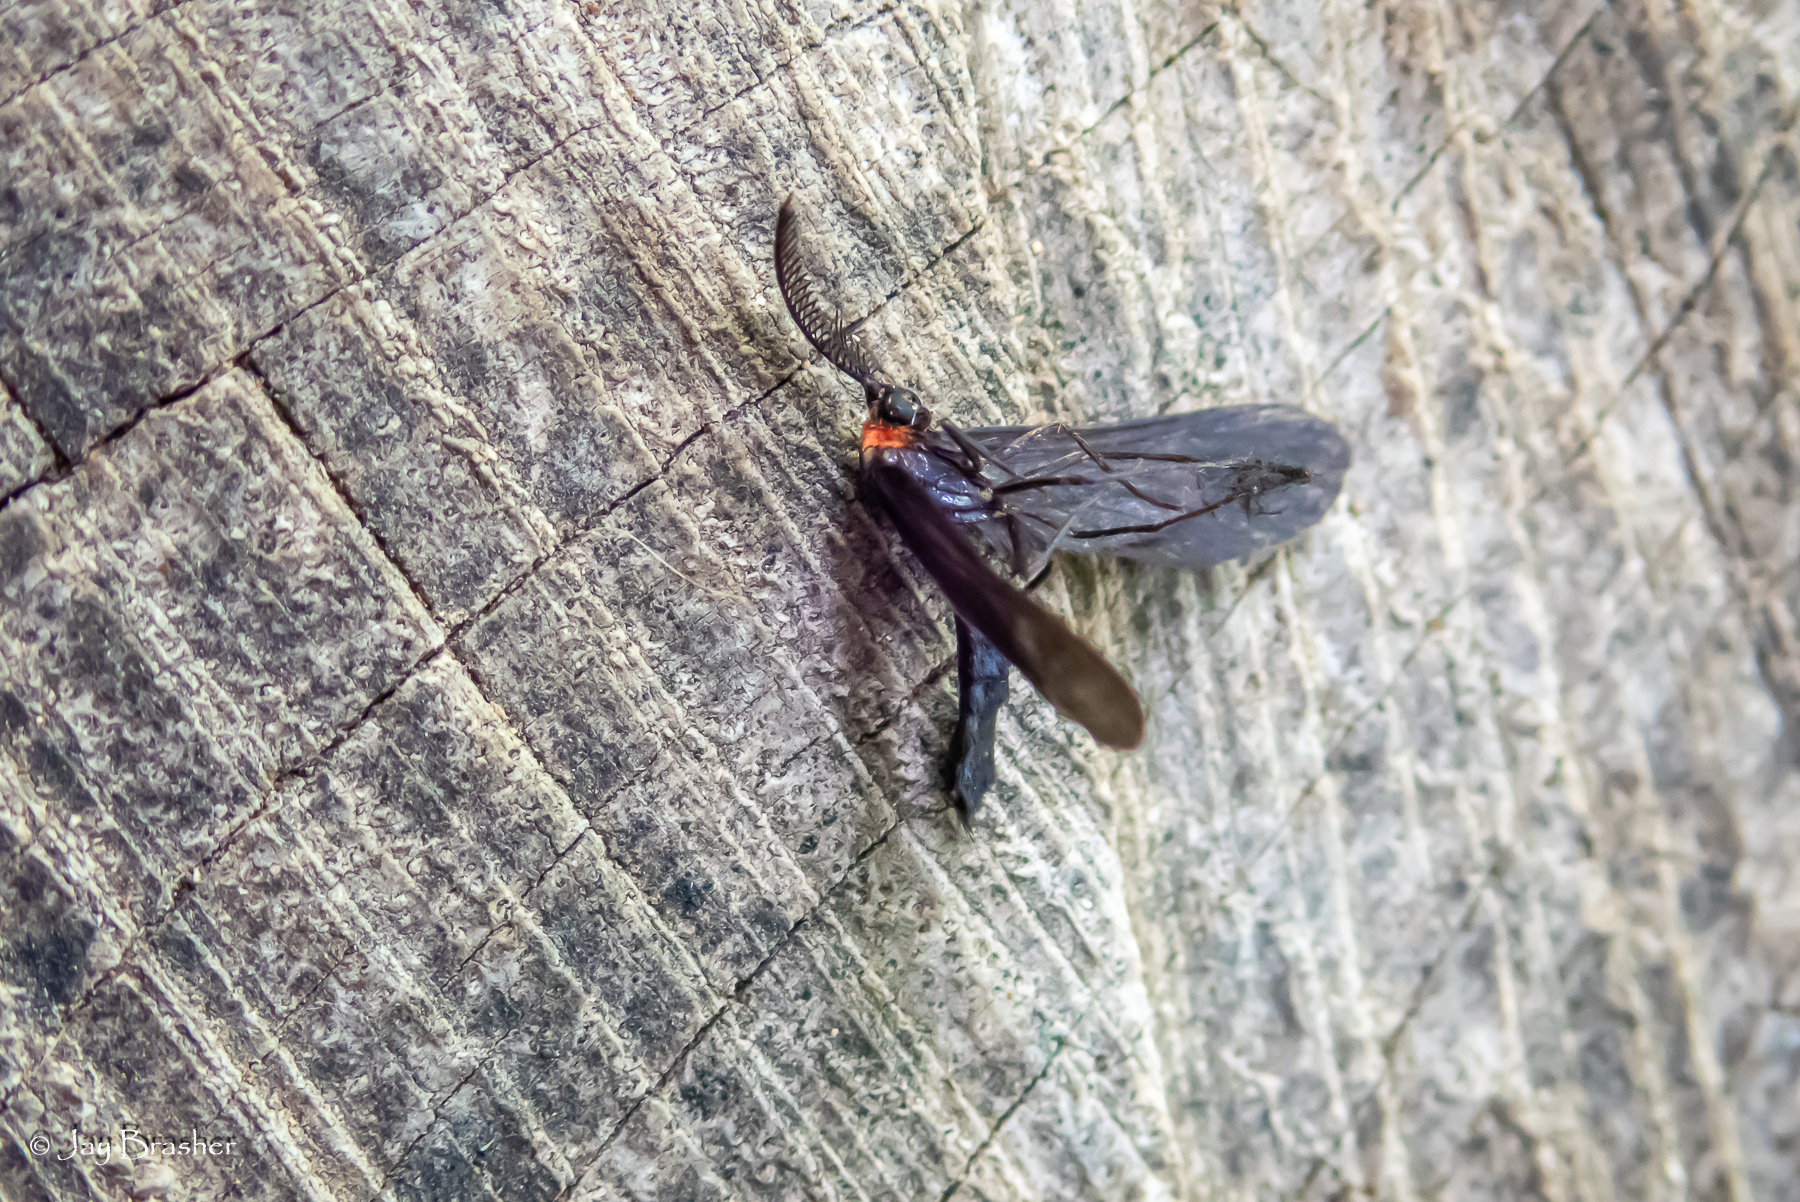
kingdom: Animalia
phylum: Arthropoda
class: Insecta
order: Lepidoptera
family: Zygaenidae
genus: Harrisina
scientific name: Harrisina americana
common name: Grapeleaf skeletonizer moth
